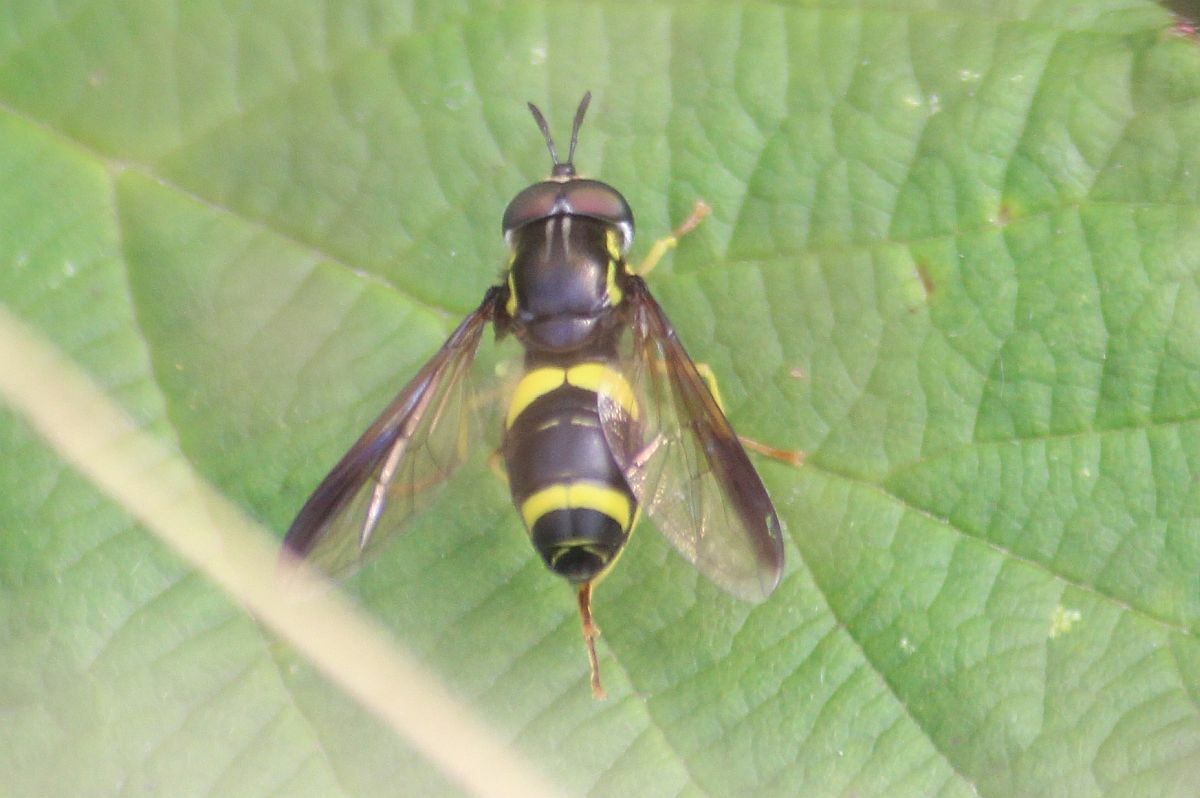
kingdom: Animalia
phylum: Arthropoda
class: Insecta
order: Diptera
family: Syrphidae
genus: Chrysotoxum
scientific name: Chrysotoxum bicincta
